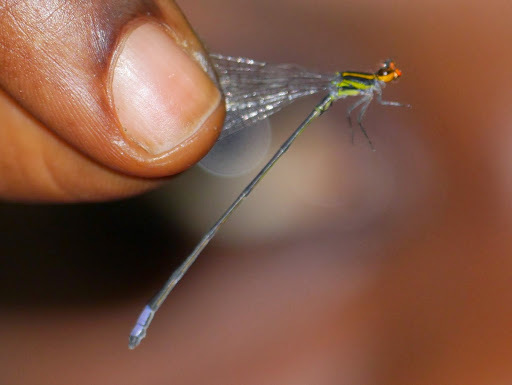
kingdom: Animalia
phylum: Arthropoda
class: Insecta
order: Odonata
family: Coenagrionidae
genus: Pseudagrion
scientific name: Pseudagrion hageni
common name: Painted sprite
